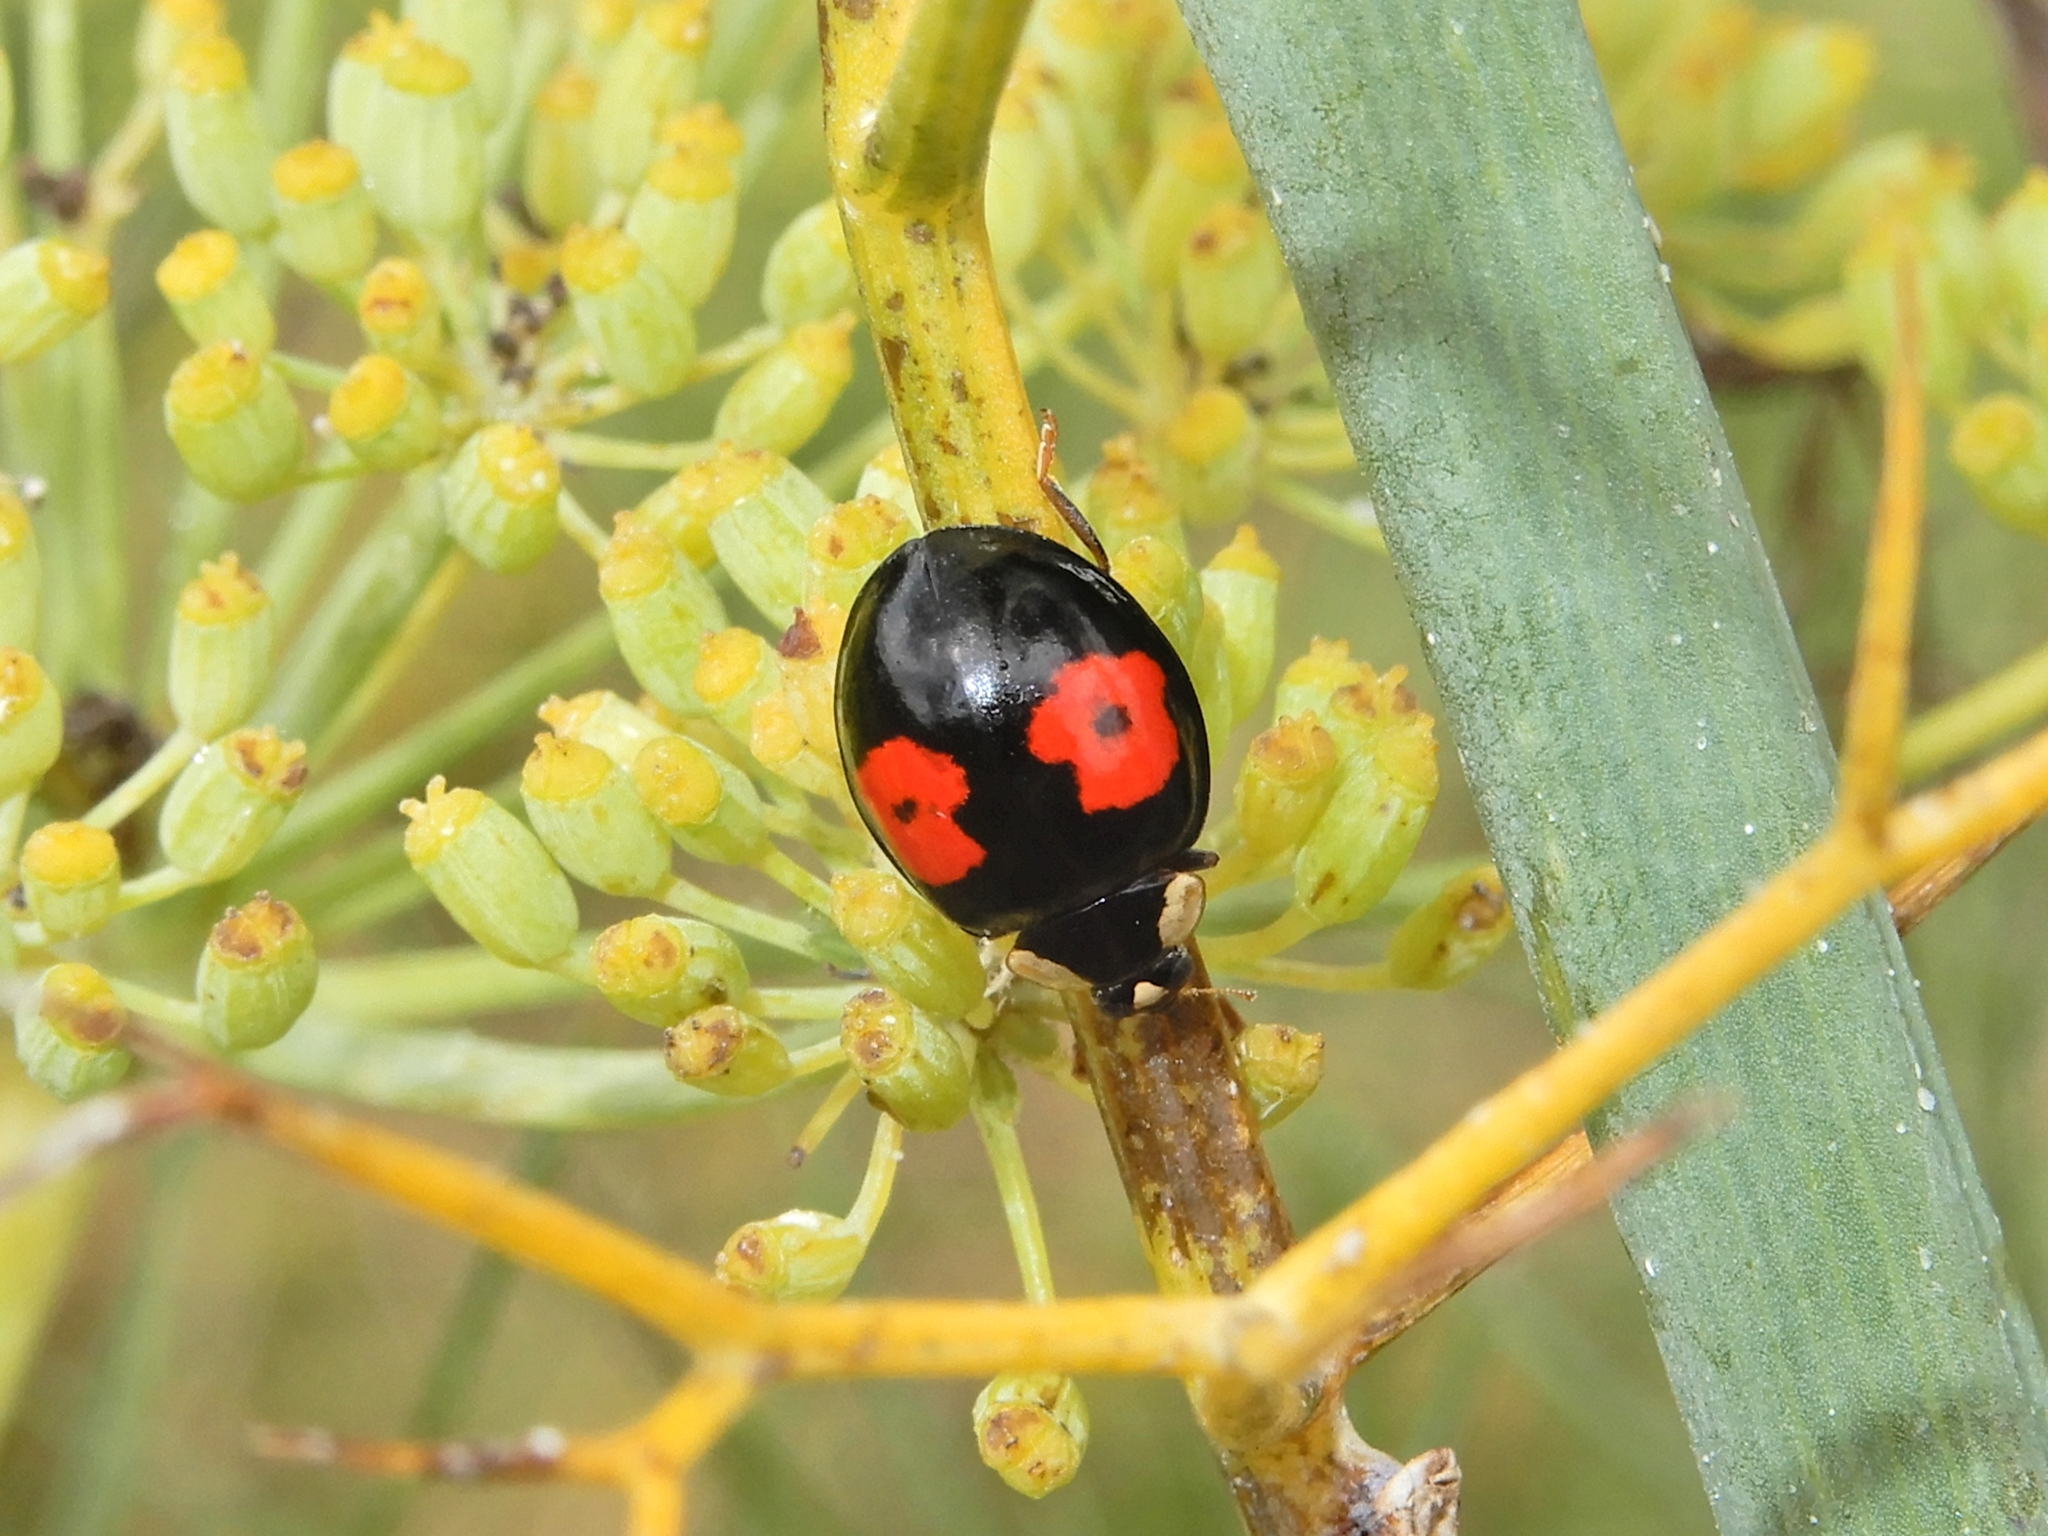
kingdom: Animalia
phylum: Arthropoda
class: Insecta
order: Coleoptera
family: Coccinellidae
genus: Harmonia
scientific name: Harmonia axyridis
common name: Harlequin ladybird
